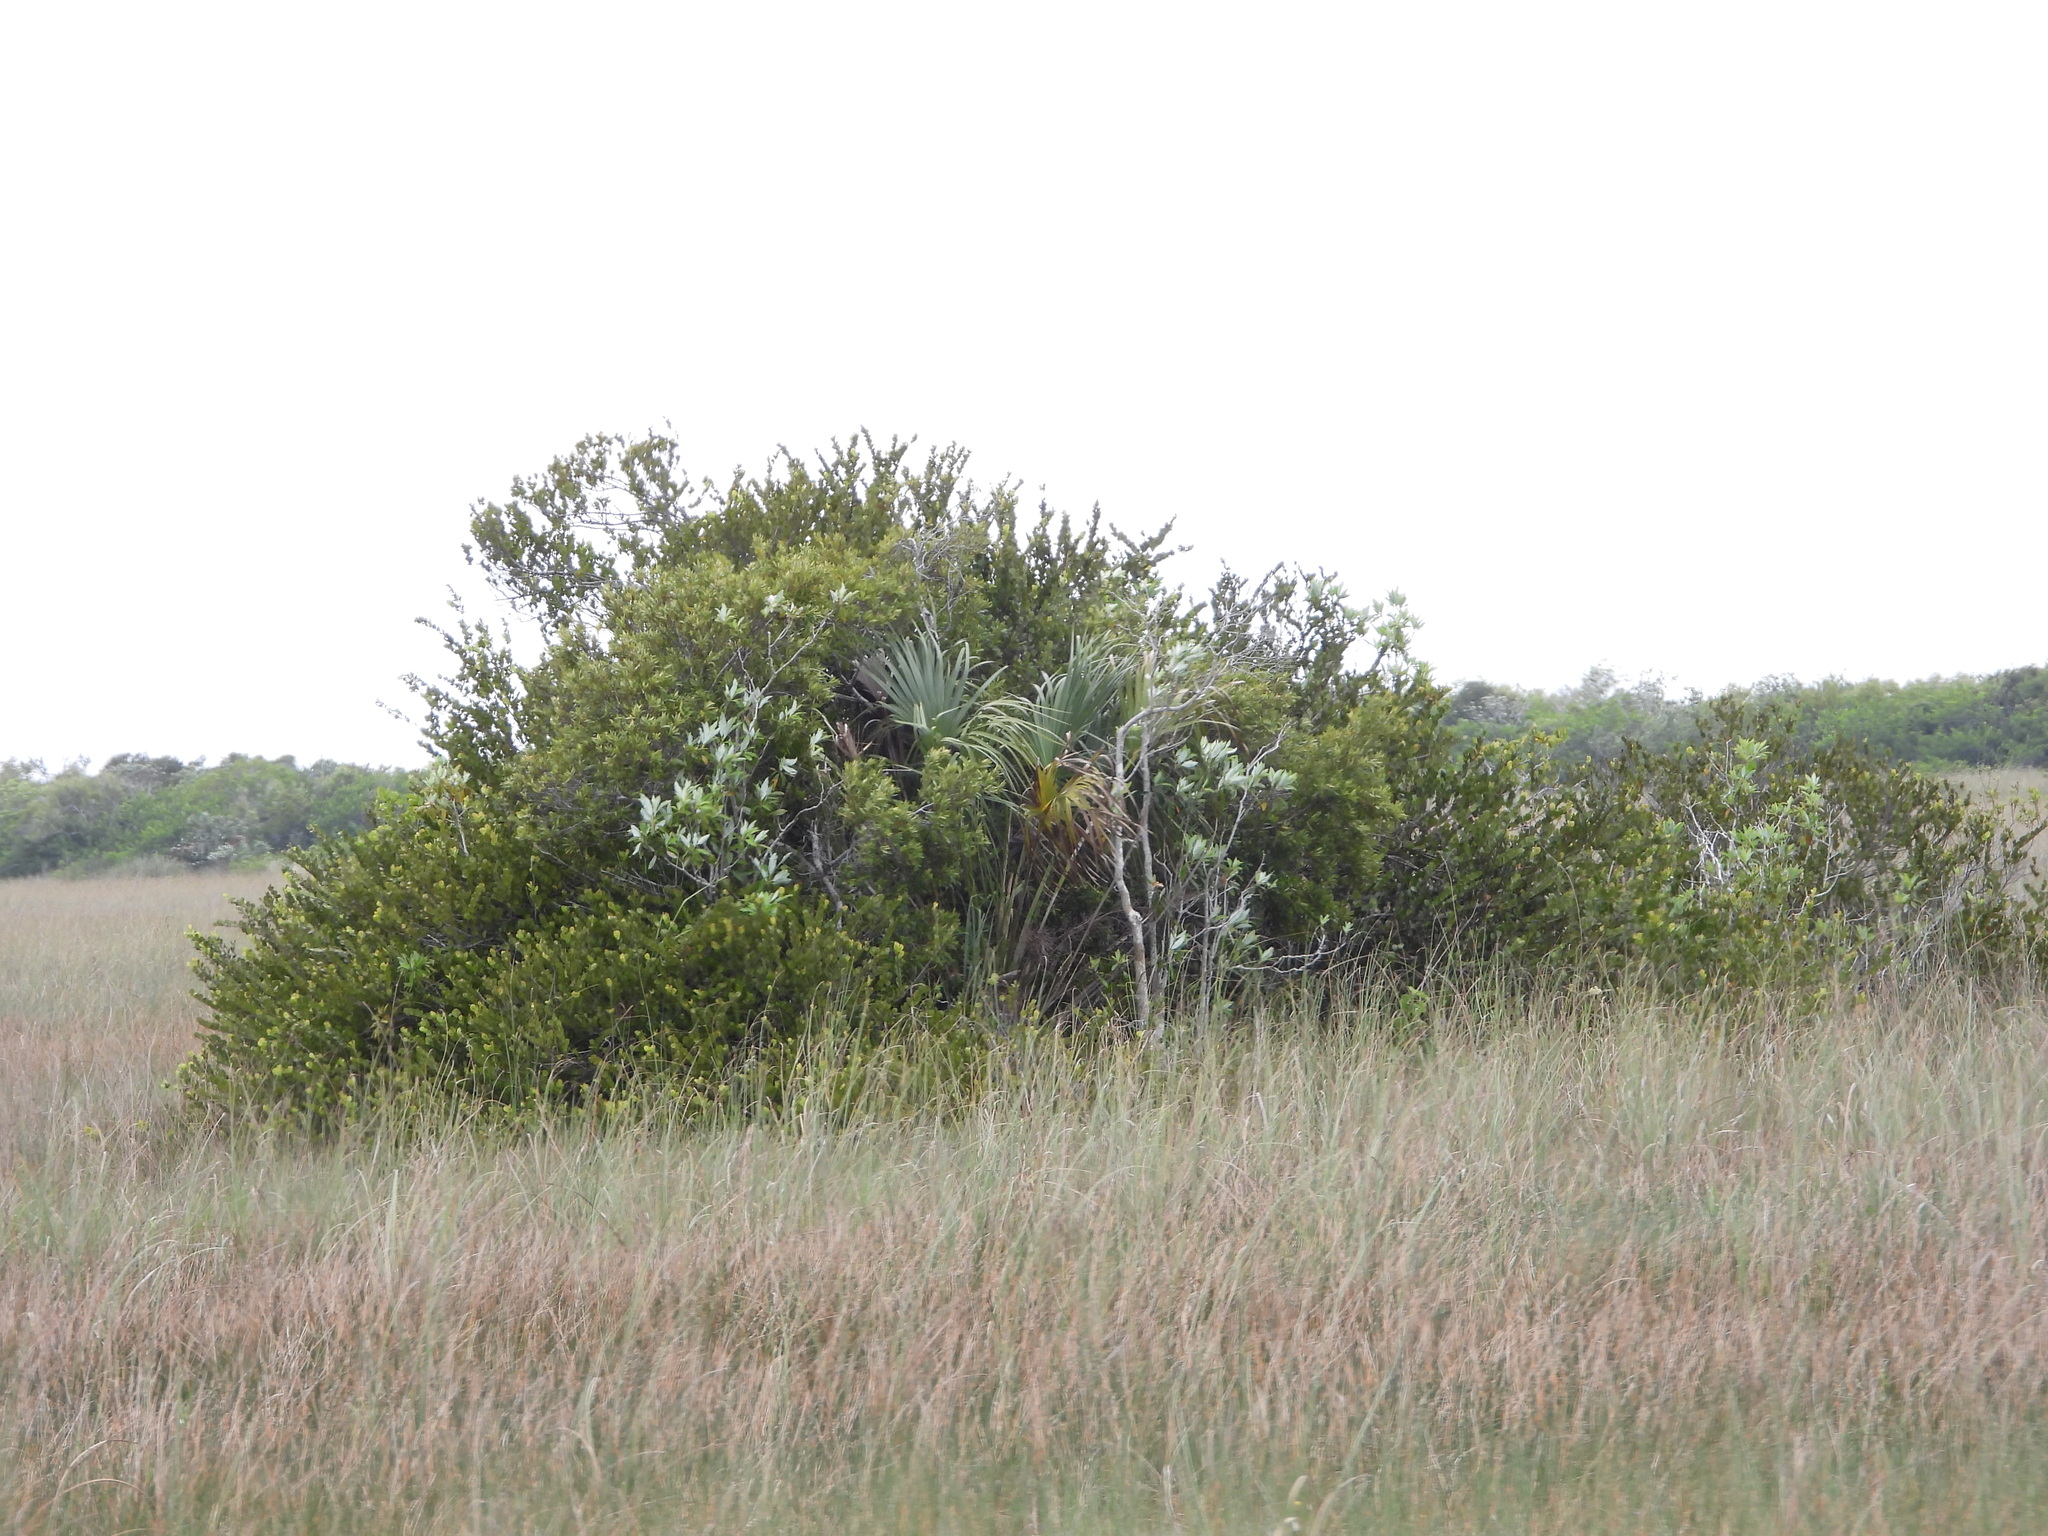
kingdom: Plantae
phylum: Tracheophyta
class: Liliopsida
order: Arecales
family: Arecaceae
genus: Sabal
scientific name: Sabal palmetto
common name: Blue palmetto
